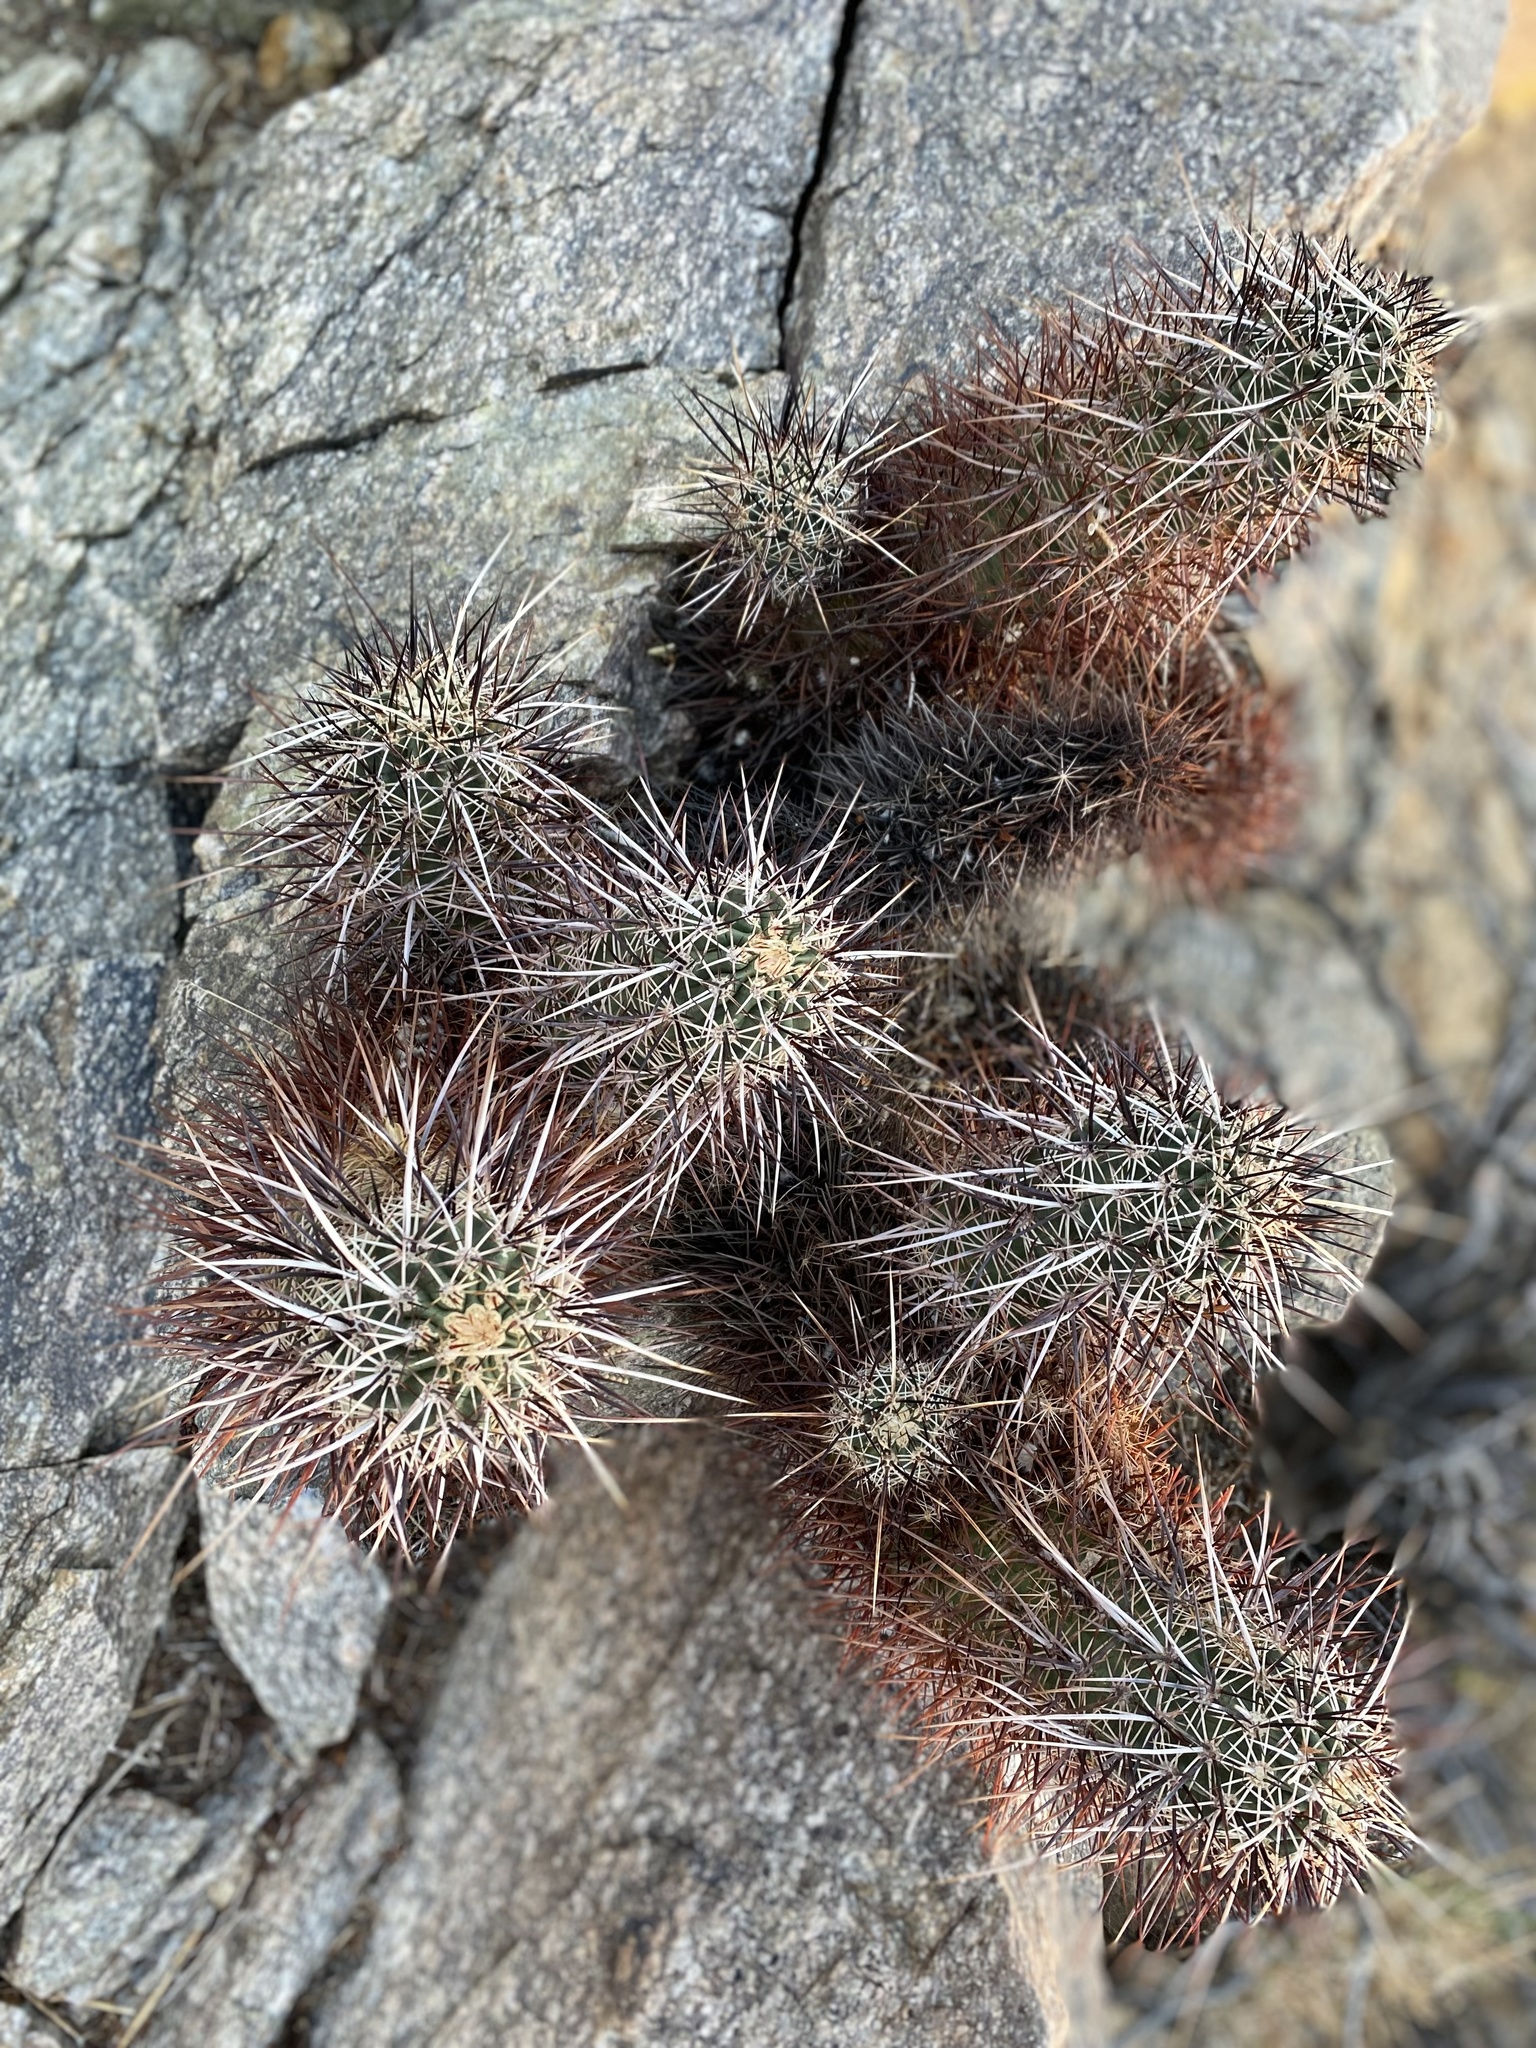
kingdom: Plantae
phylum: Tracheophyta
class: Magnoliopsida
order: Caryophyllales
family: Cactaceae
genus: Echinocereus
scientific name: Echinocereus engelmannii
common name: Engelmann's hedgehog cactus
